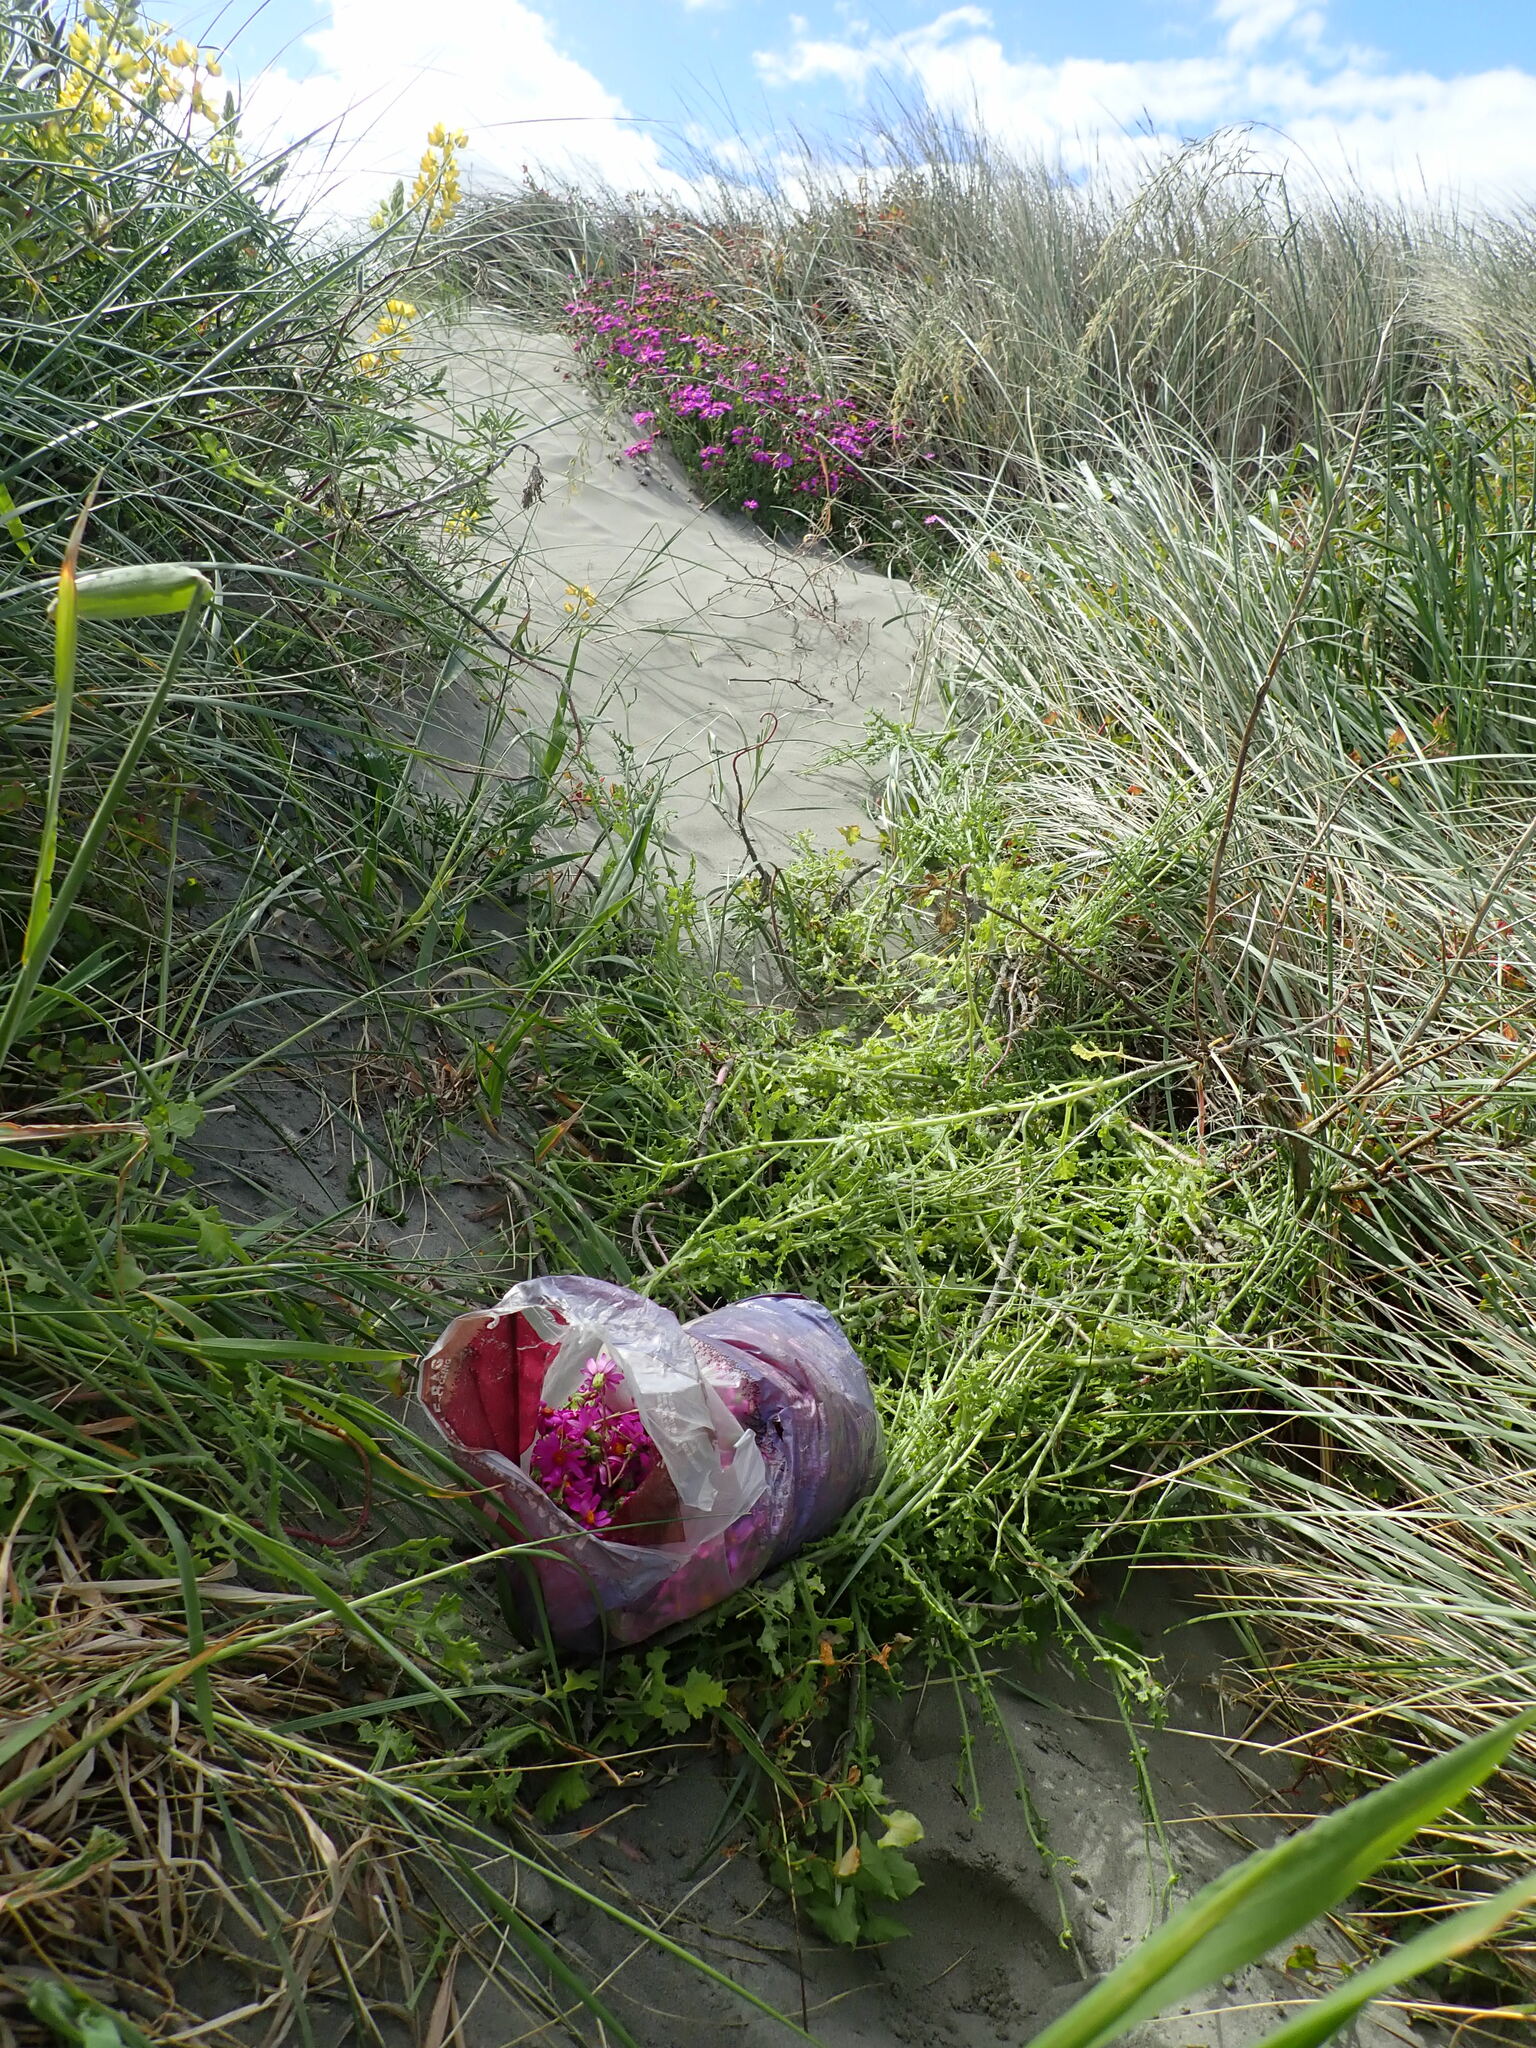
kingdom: Plantae
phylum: Tracheophyta
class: Magnoliopsida
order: Asterales
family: Asteraceae
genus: Senecio
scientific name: Senecio elegans
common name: Purple groundsel
